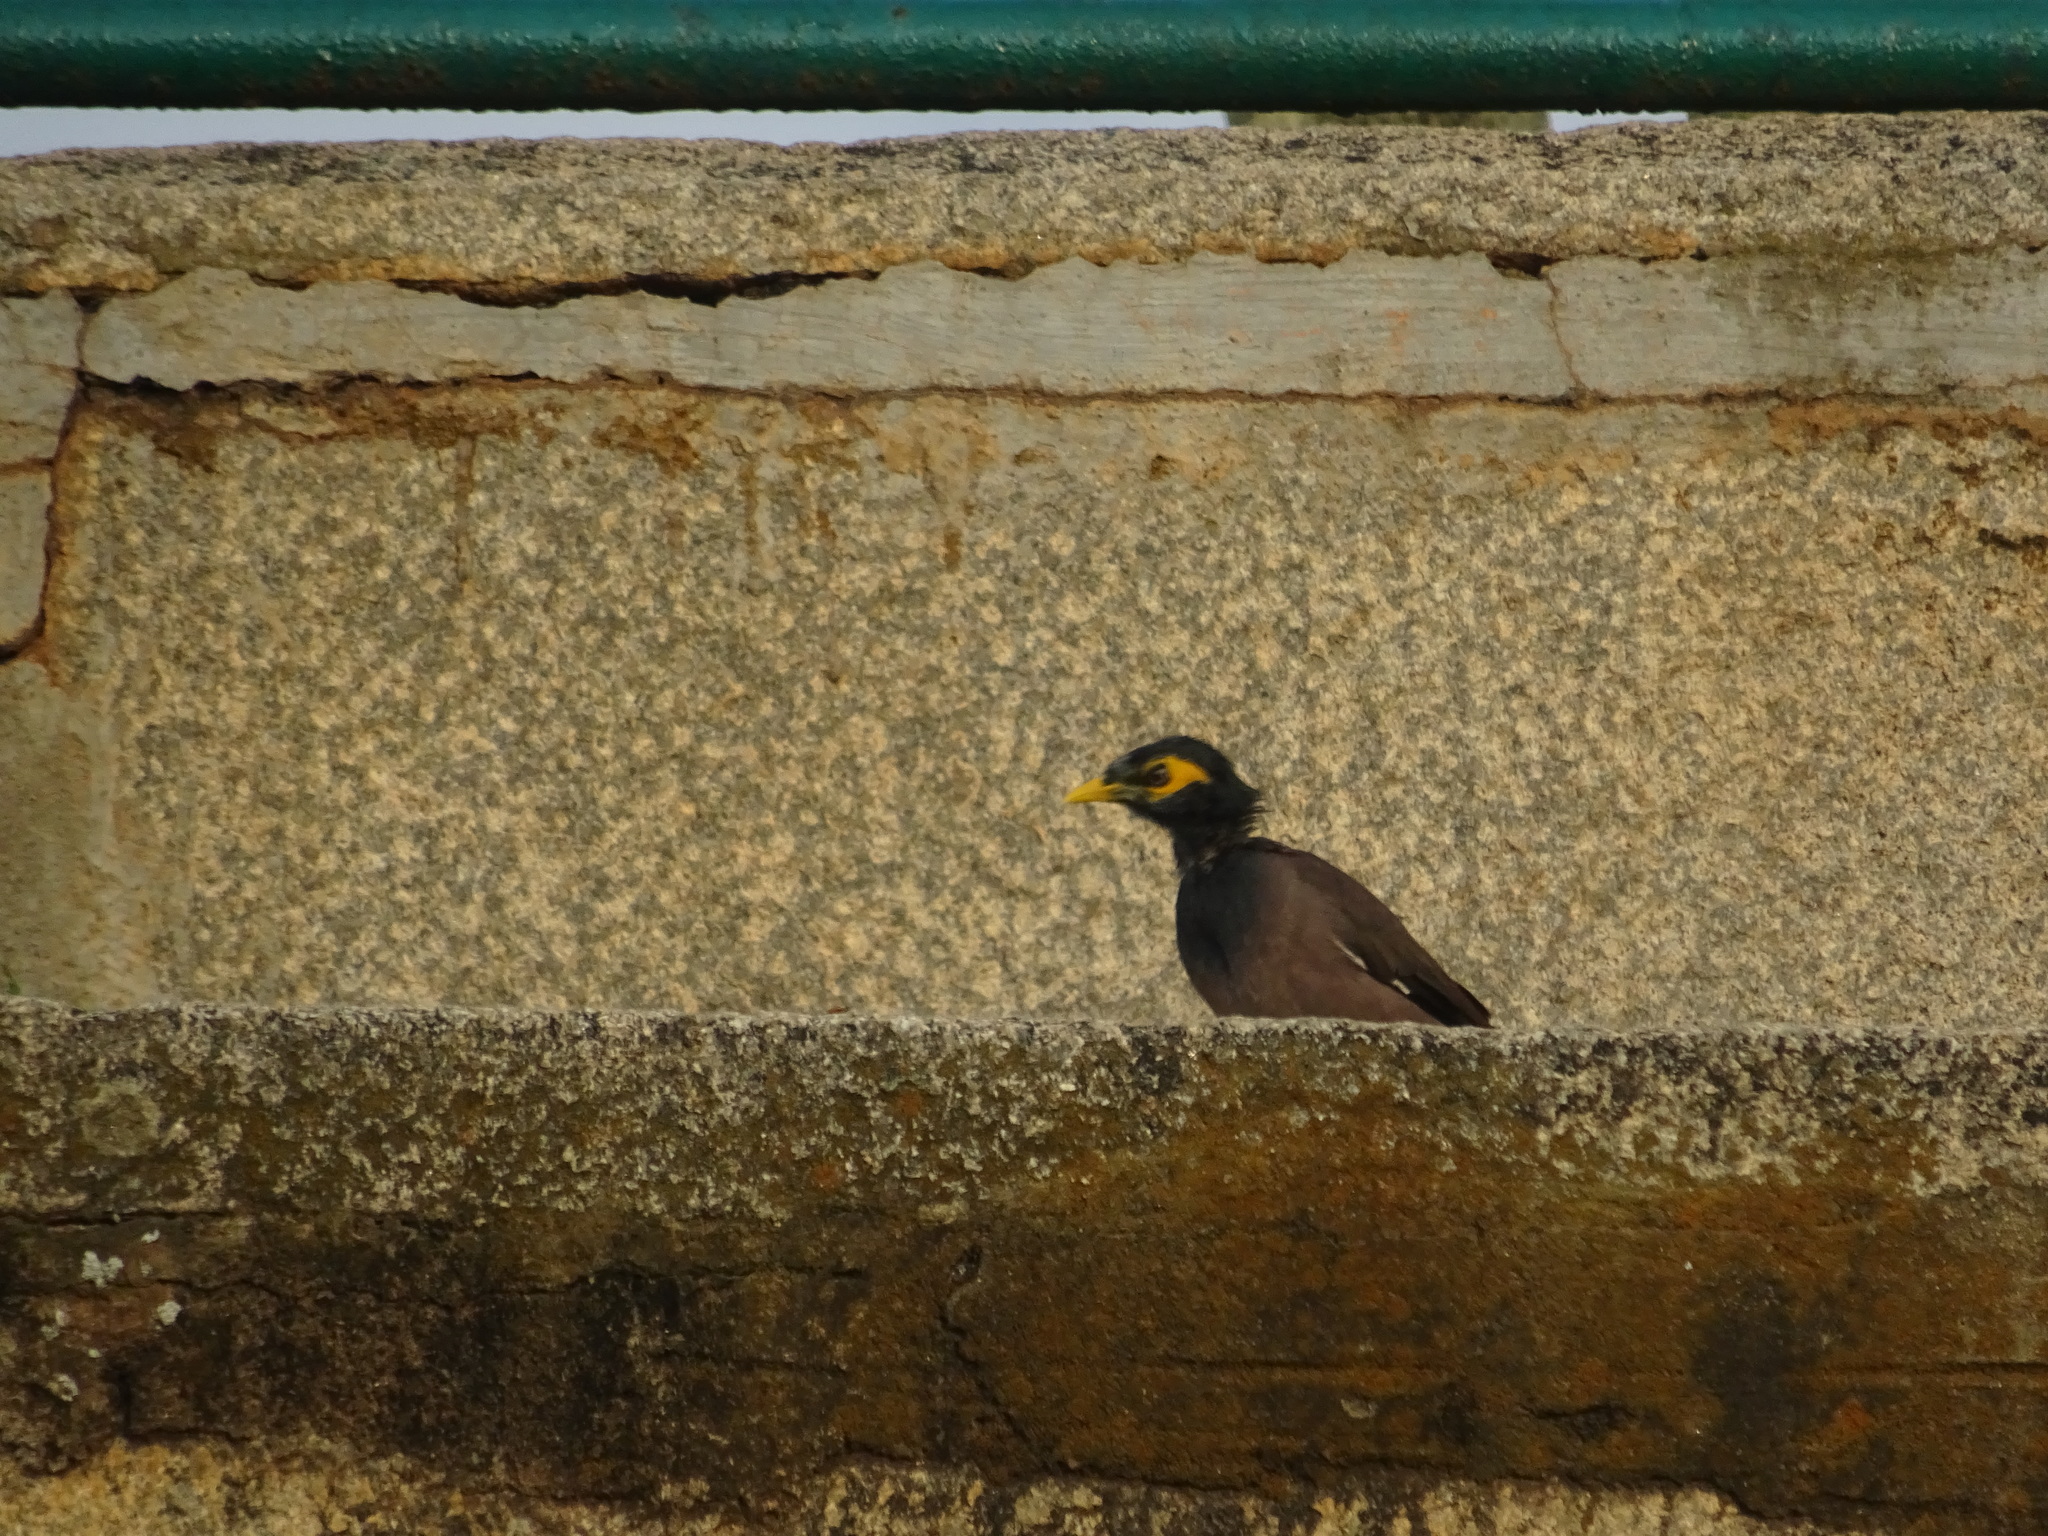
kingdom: Animalia
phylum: Chordata
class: Aves
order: Passeriformes
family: Sturnidae
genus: Acridotheres
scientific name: Acridotheres tristis
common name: Common myna
